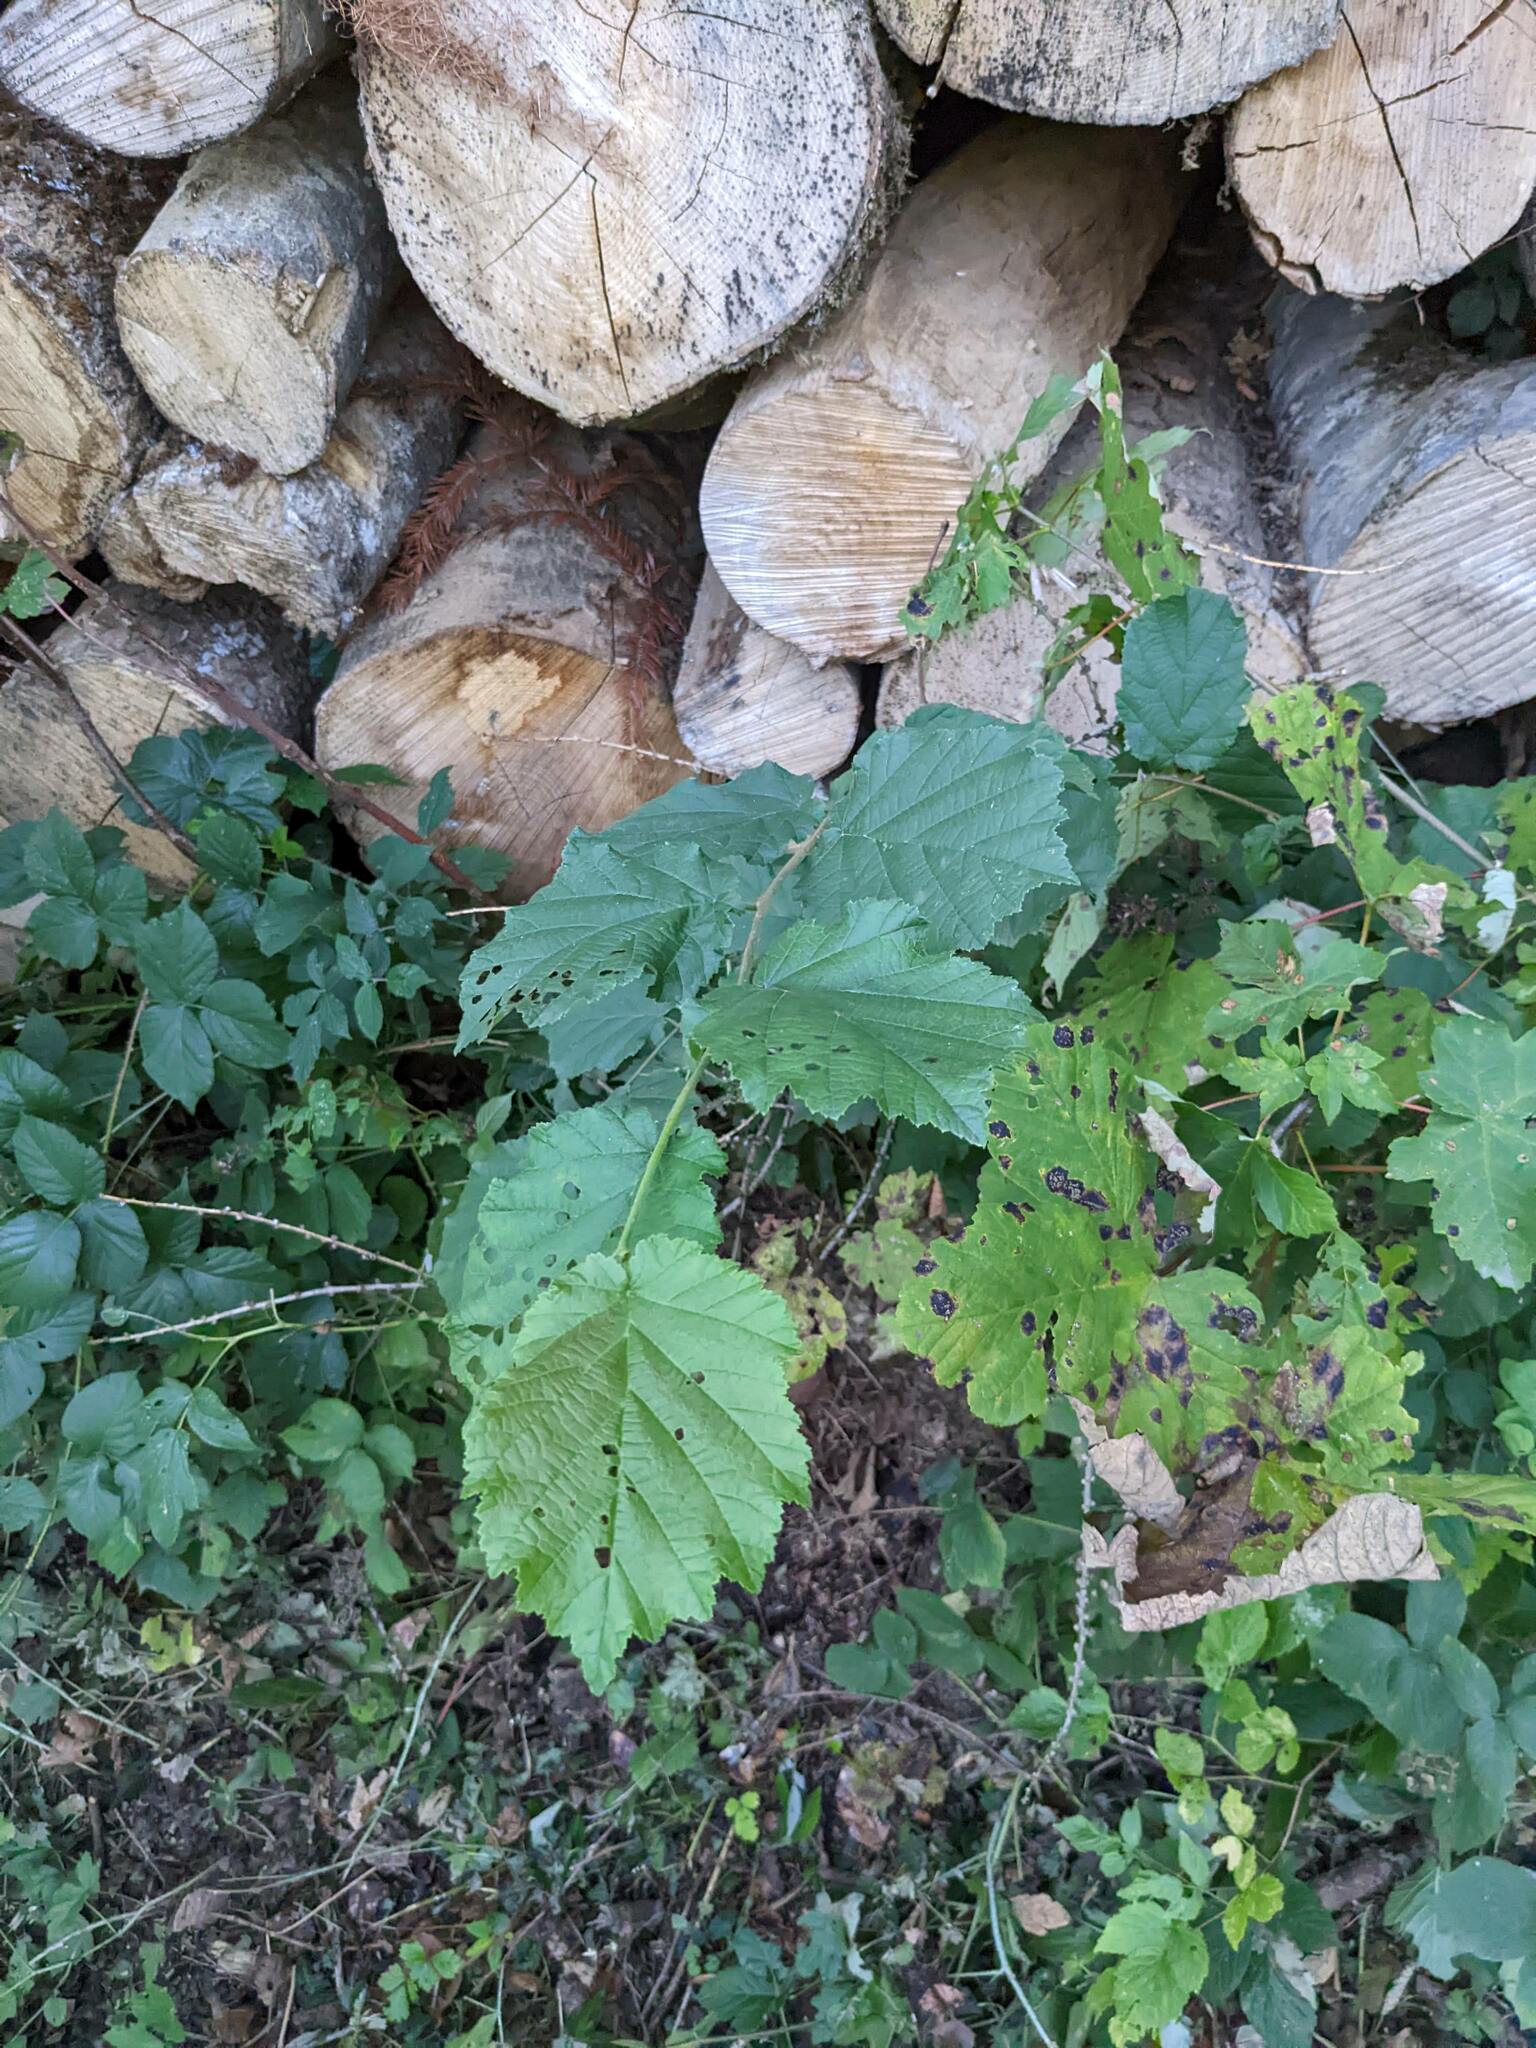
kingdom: Plantae
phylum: Tracheophyta
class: Magnoliopsida
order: Fagales
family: Betulaceae
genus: Corylus
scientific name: Corylus avellana
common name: European hazel
